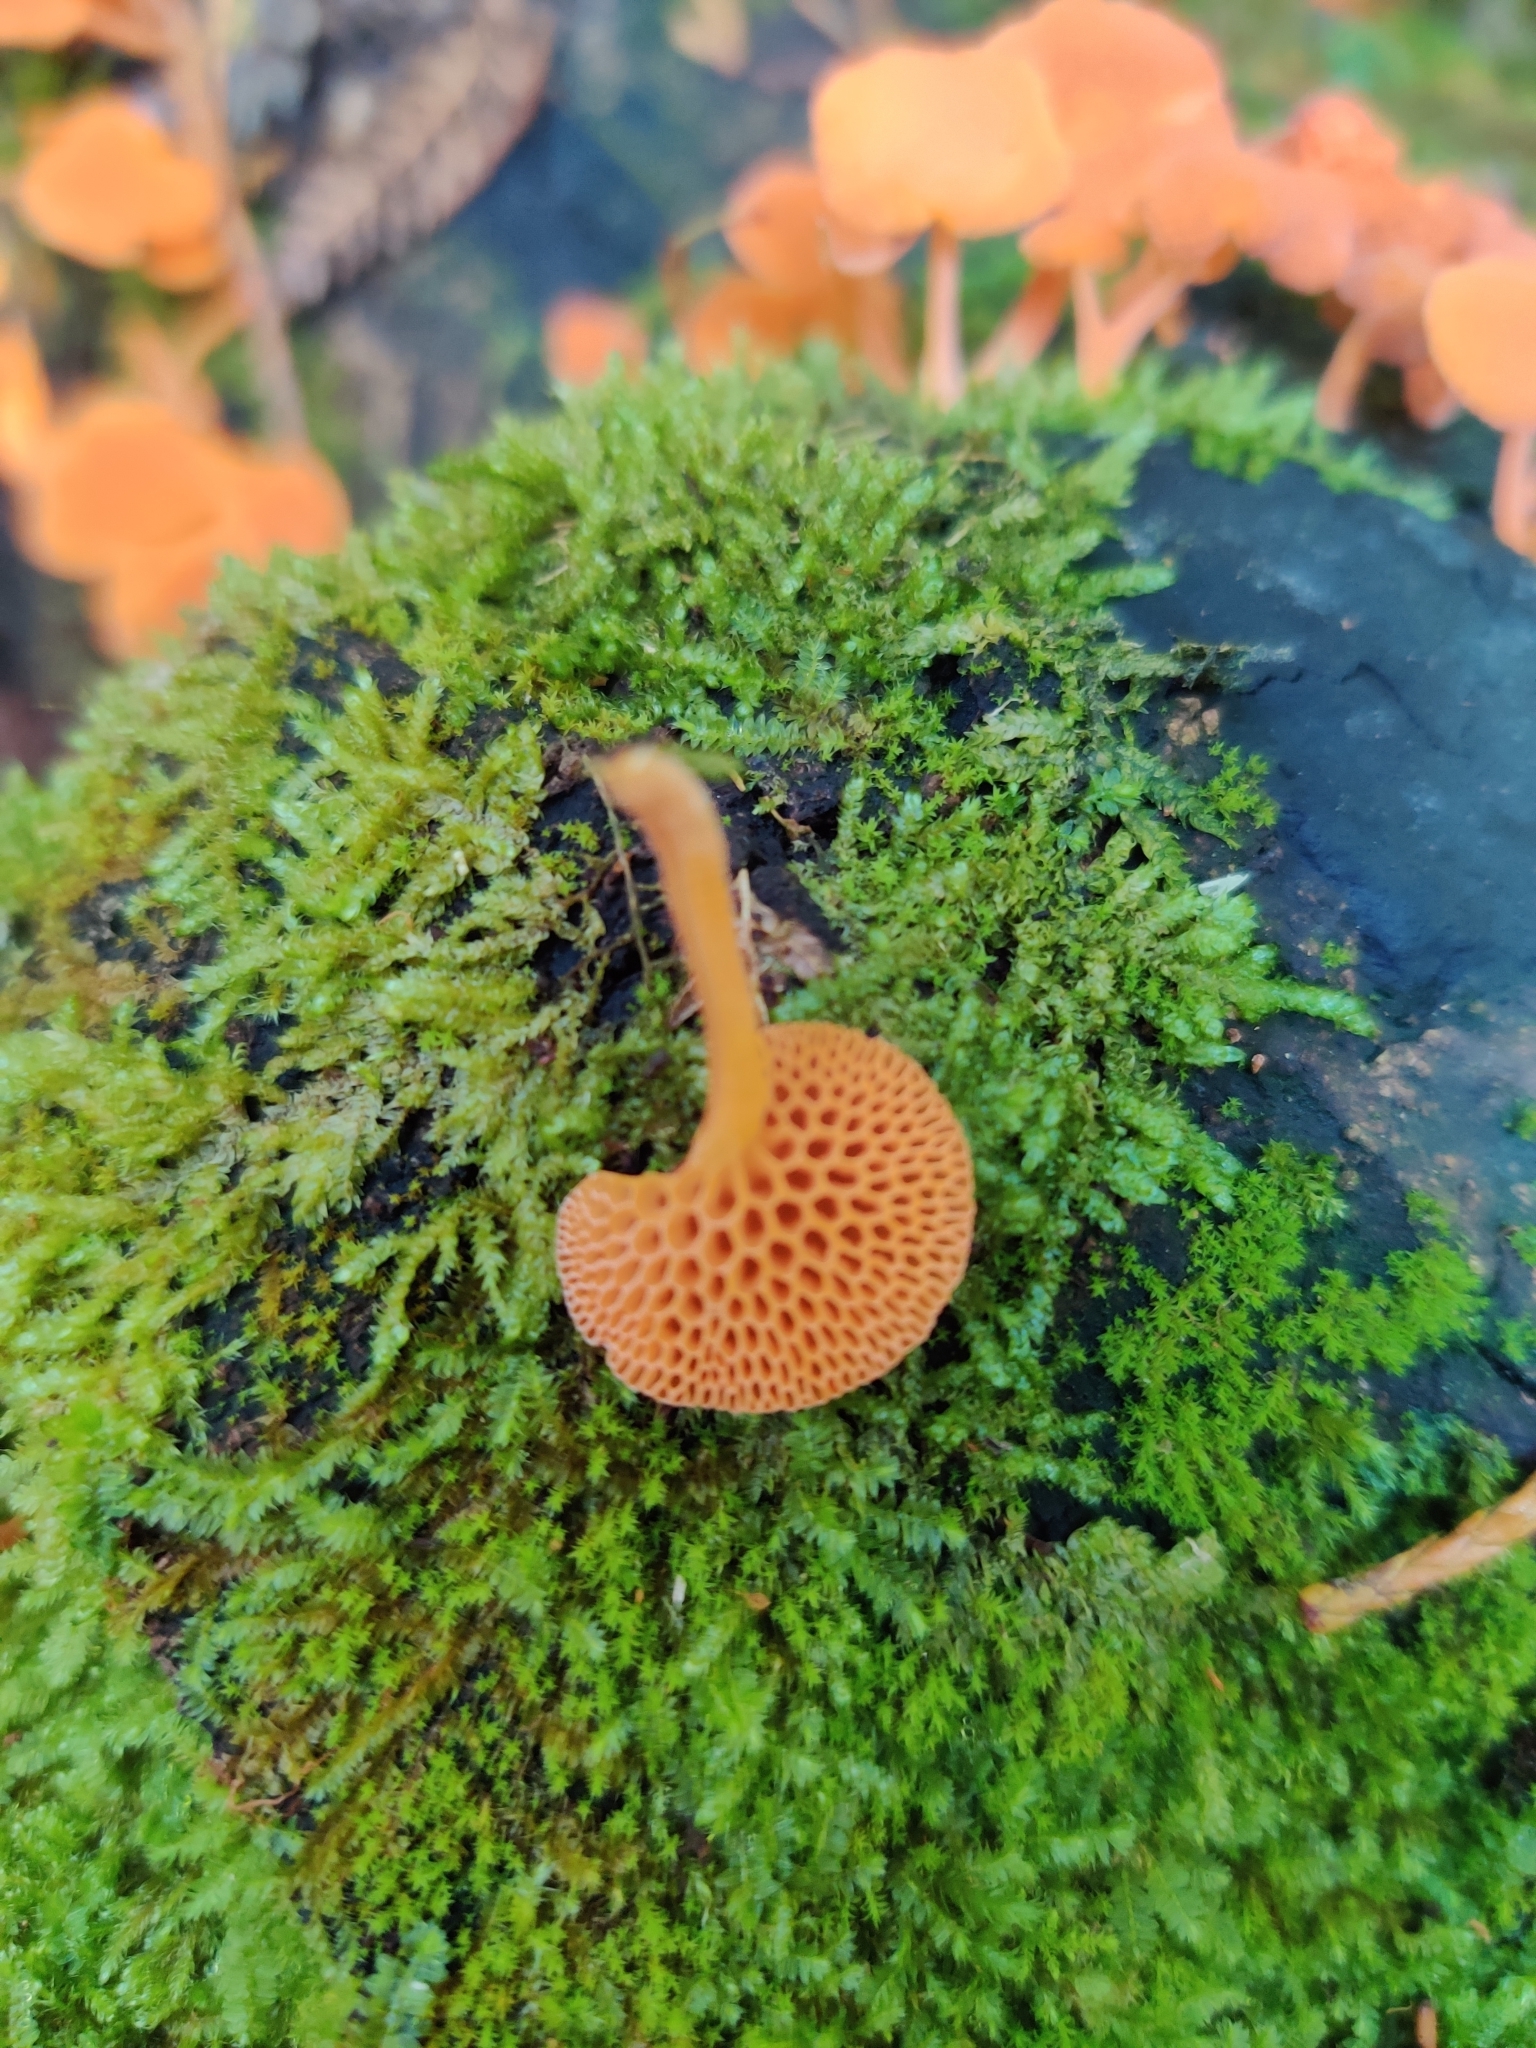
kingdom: Fungi
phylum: Basidiomycota
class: Agaricomycetes
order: Agaricales
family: Mycenaceae
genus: Favolaschia
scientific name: Favolaschia claudopus
